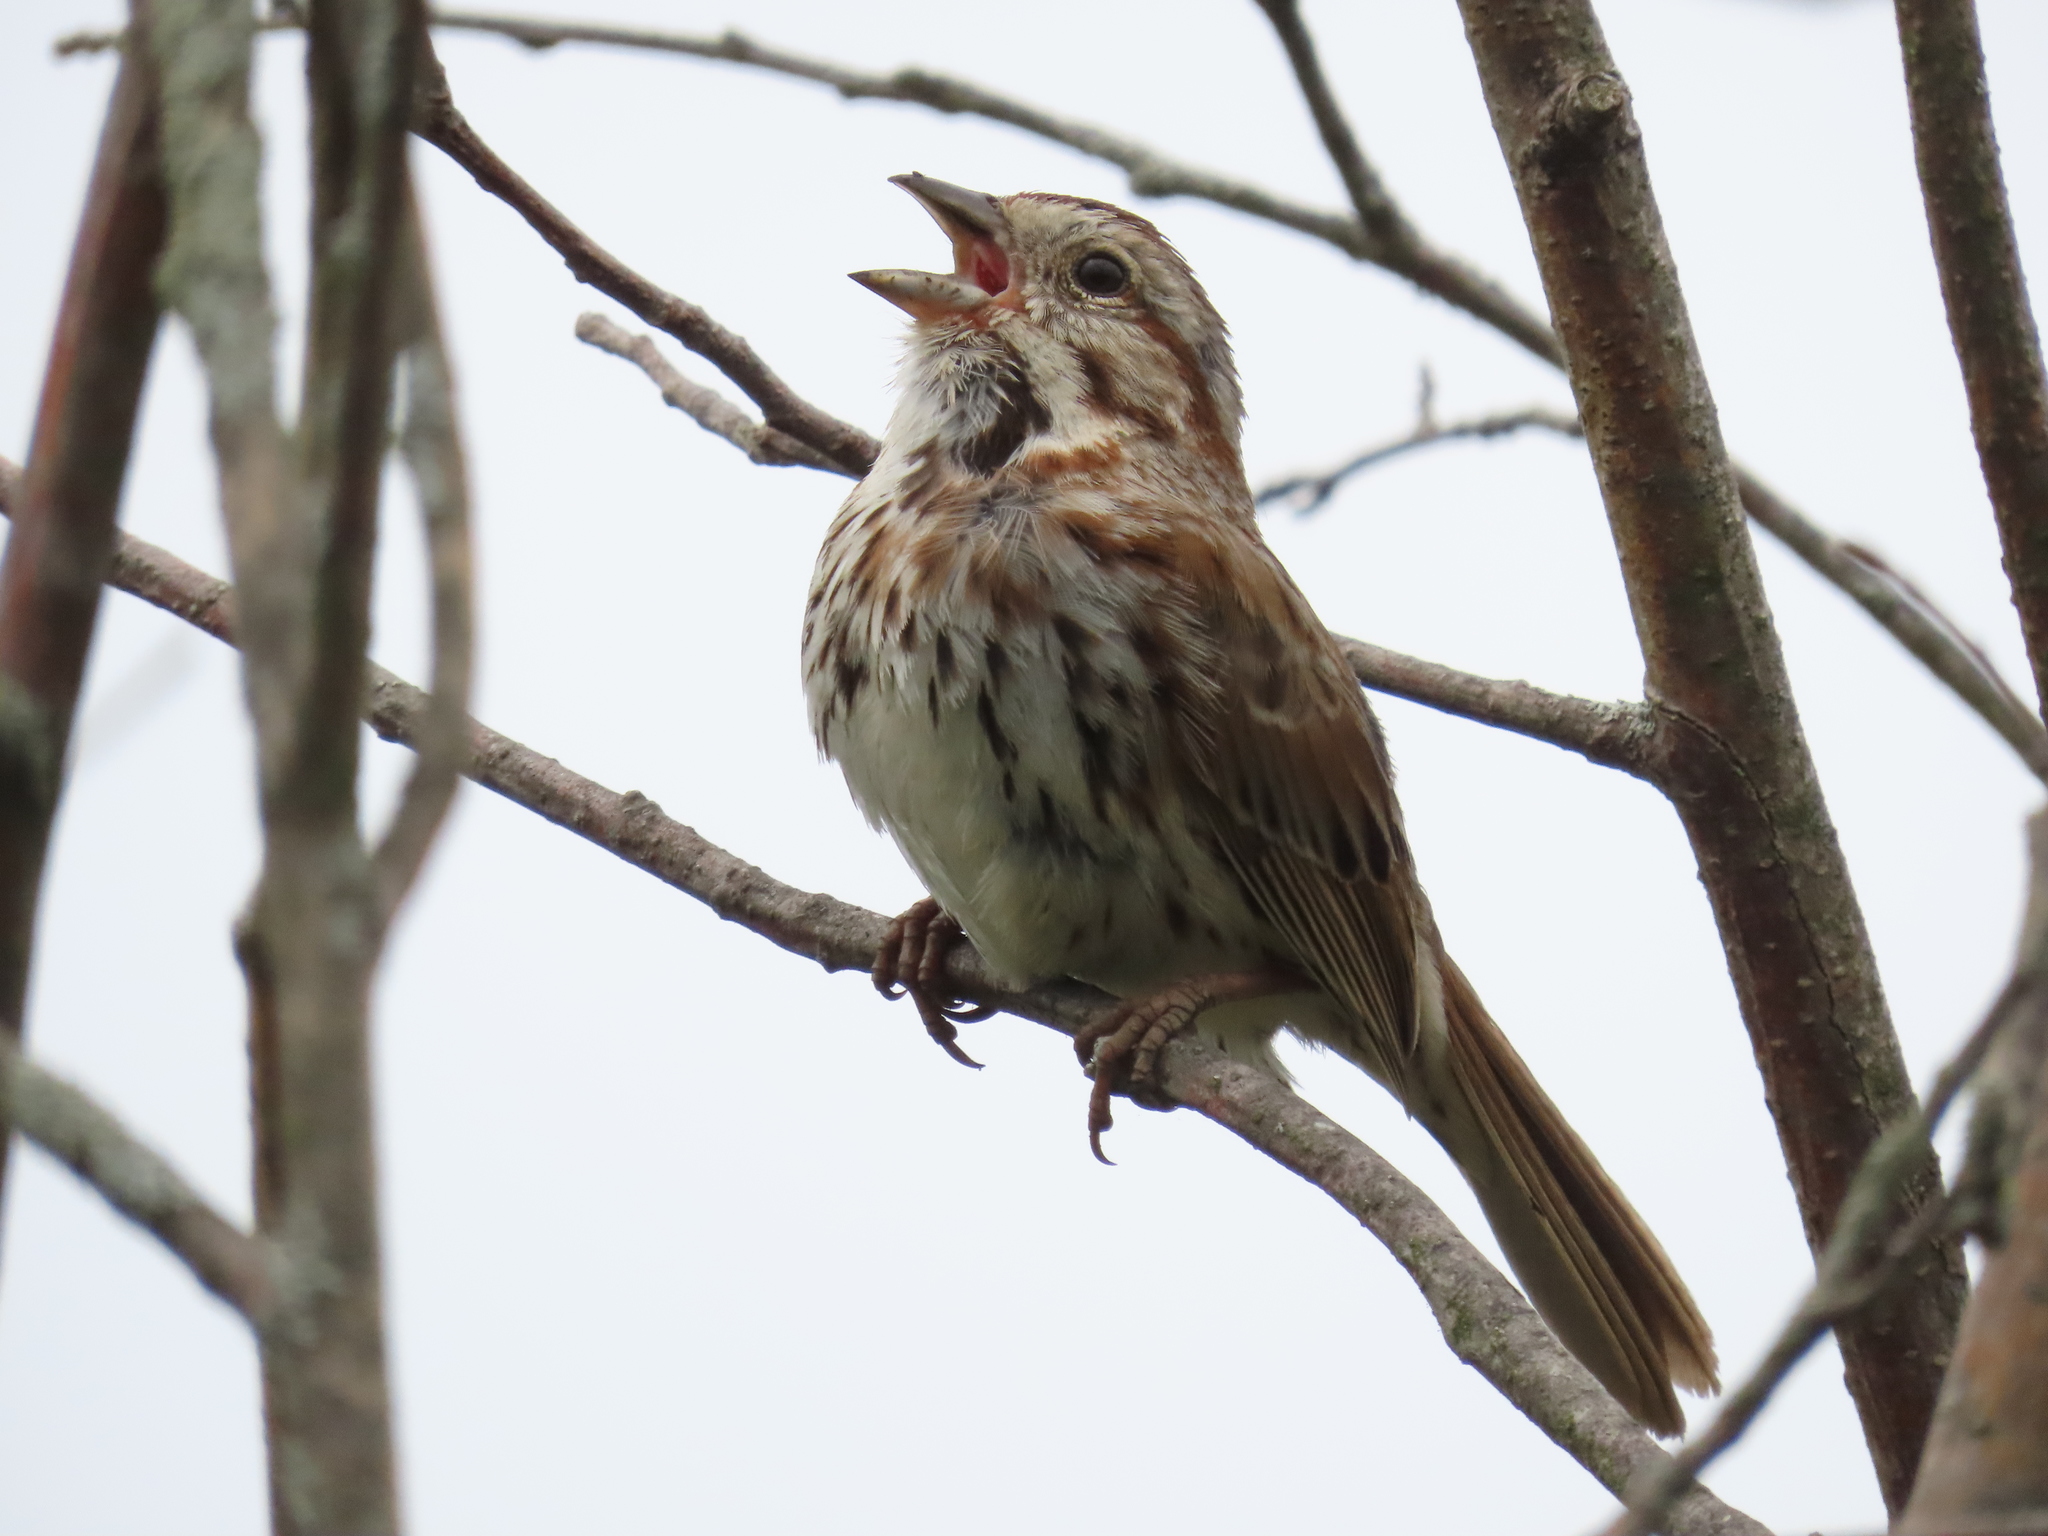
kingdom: Animalia
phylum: Chordata
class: Aves
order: Passeriformes
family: Passerellidae
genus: Melospiza
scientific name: Melospiza melodia
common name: Song sparrow
